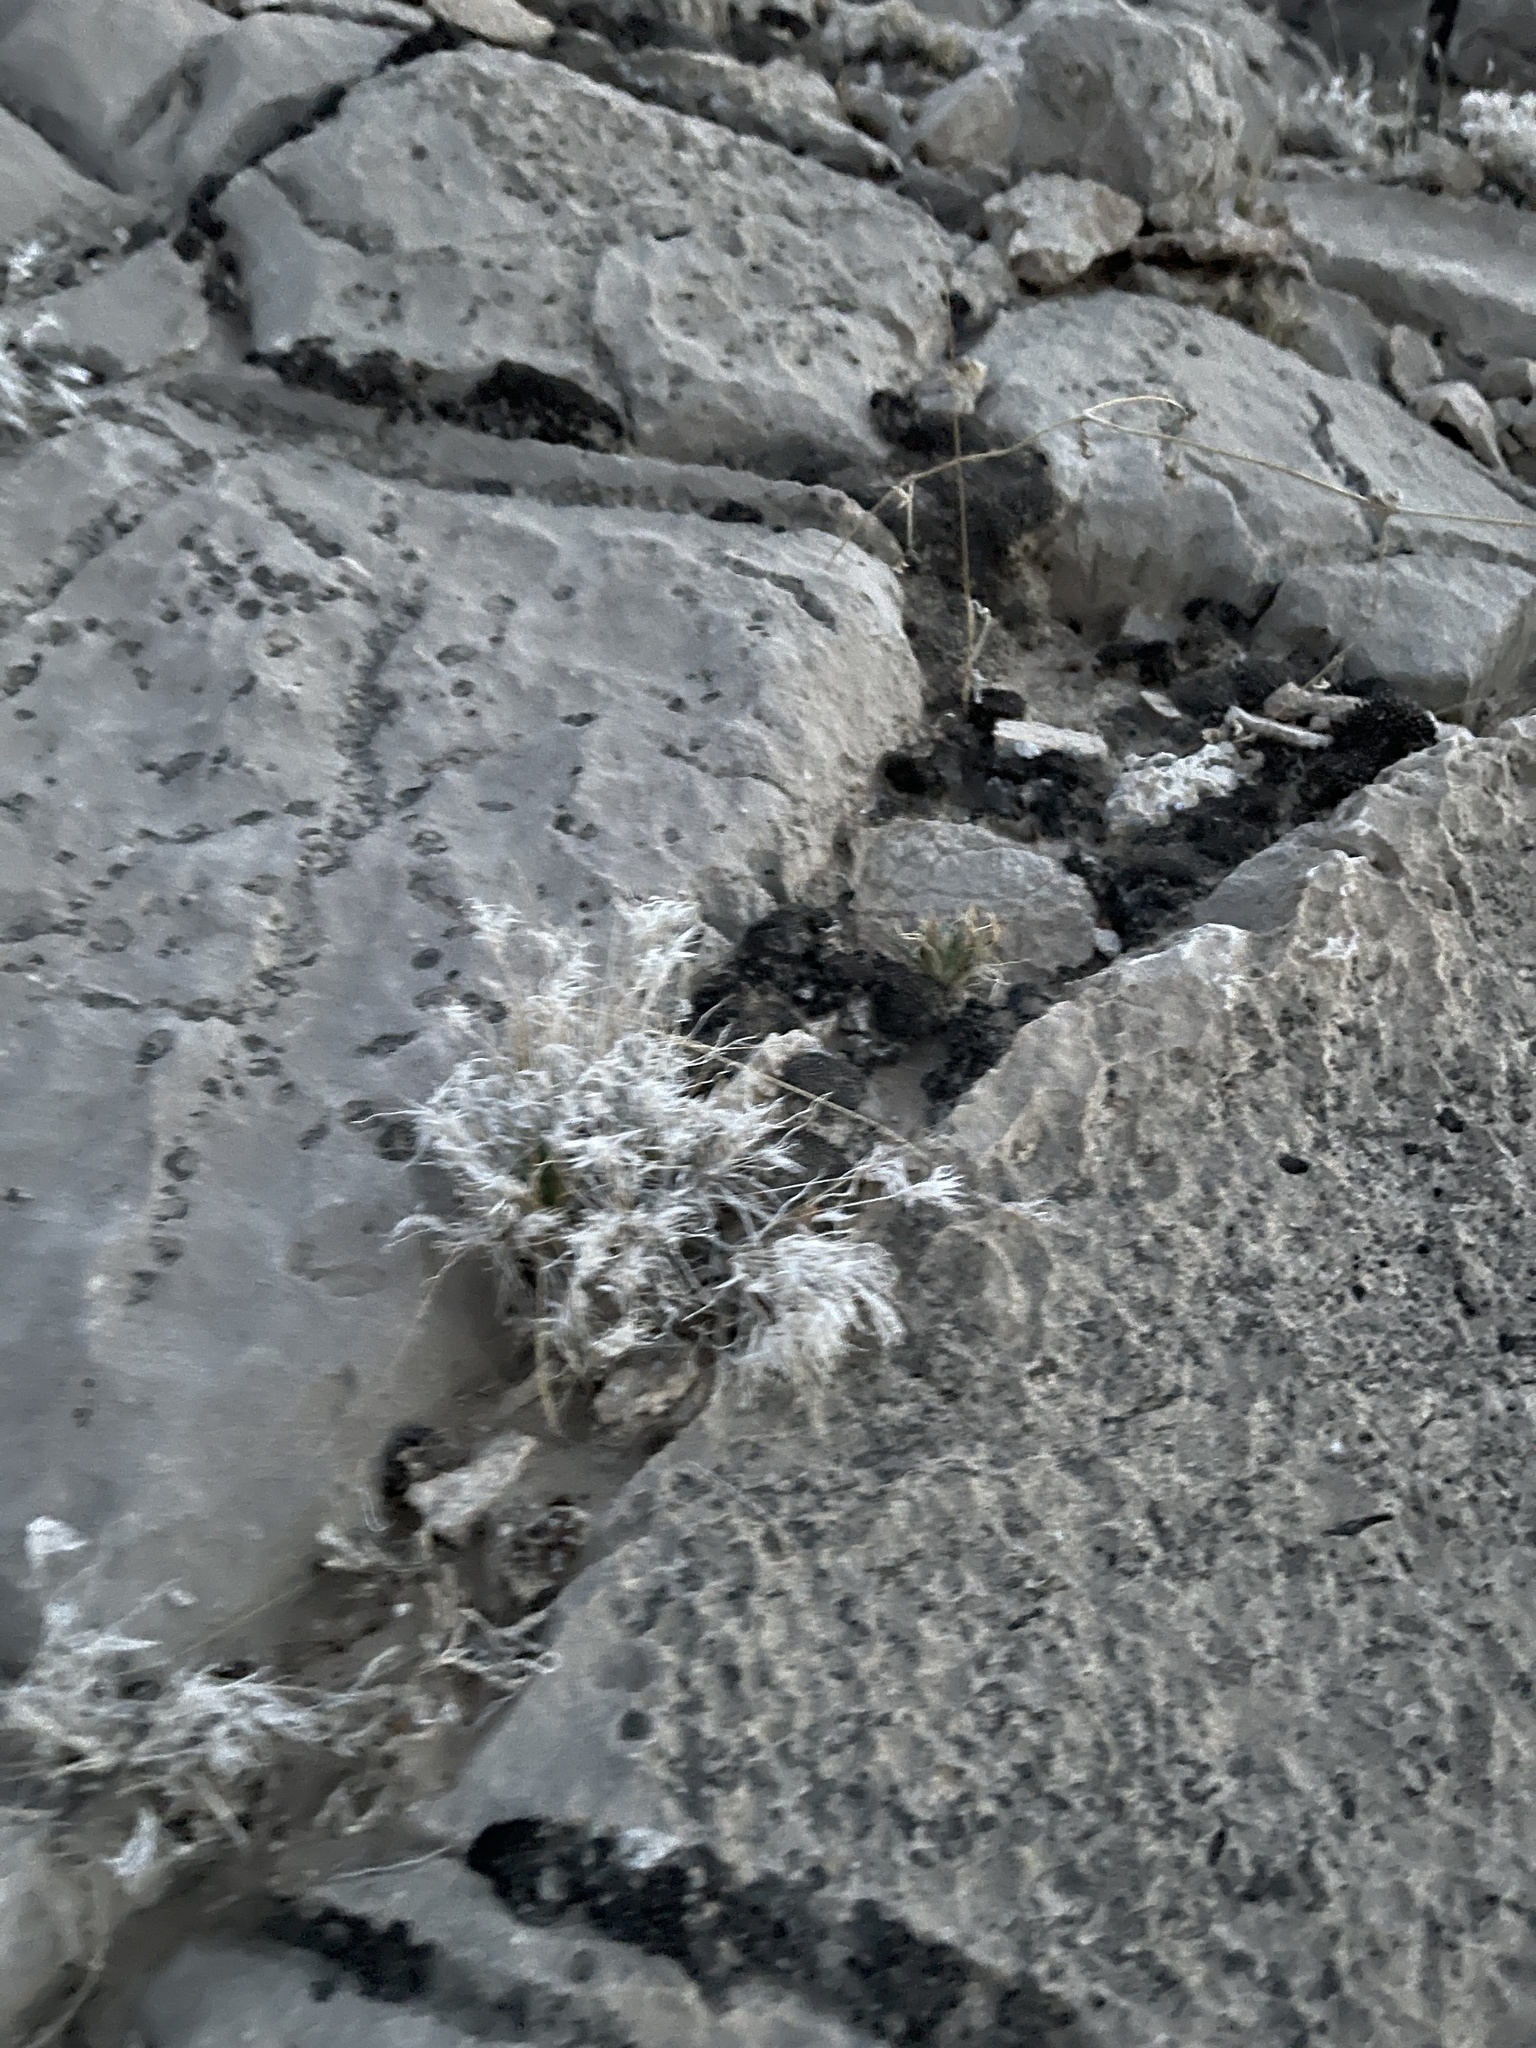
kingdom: Plantae
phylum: Tracheophyta
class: Liliopsida
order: Poales
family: Poaceae
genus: Dasyochloa
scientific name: Dasyochloa pulchella
